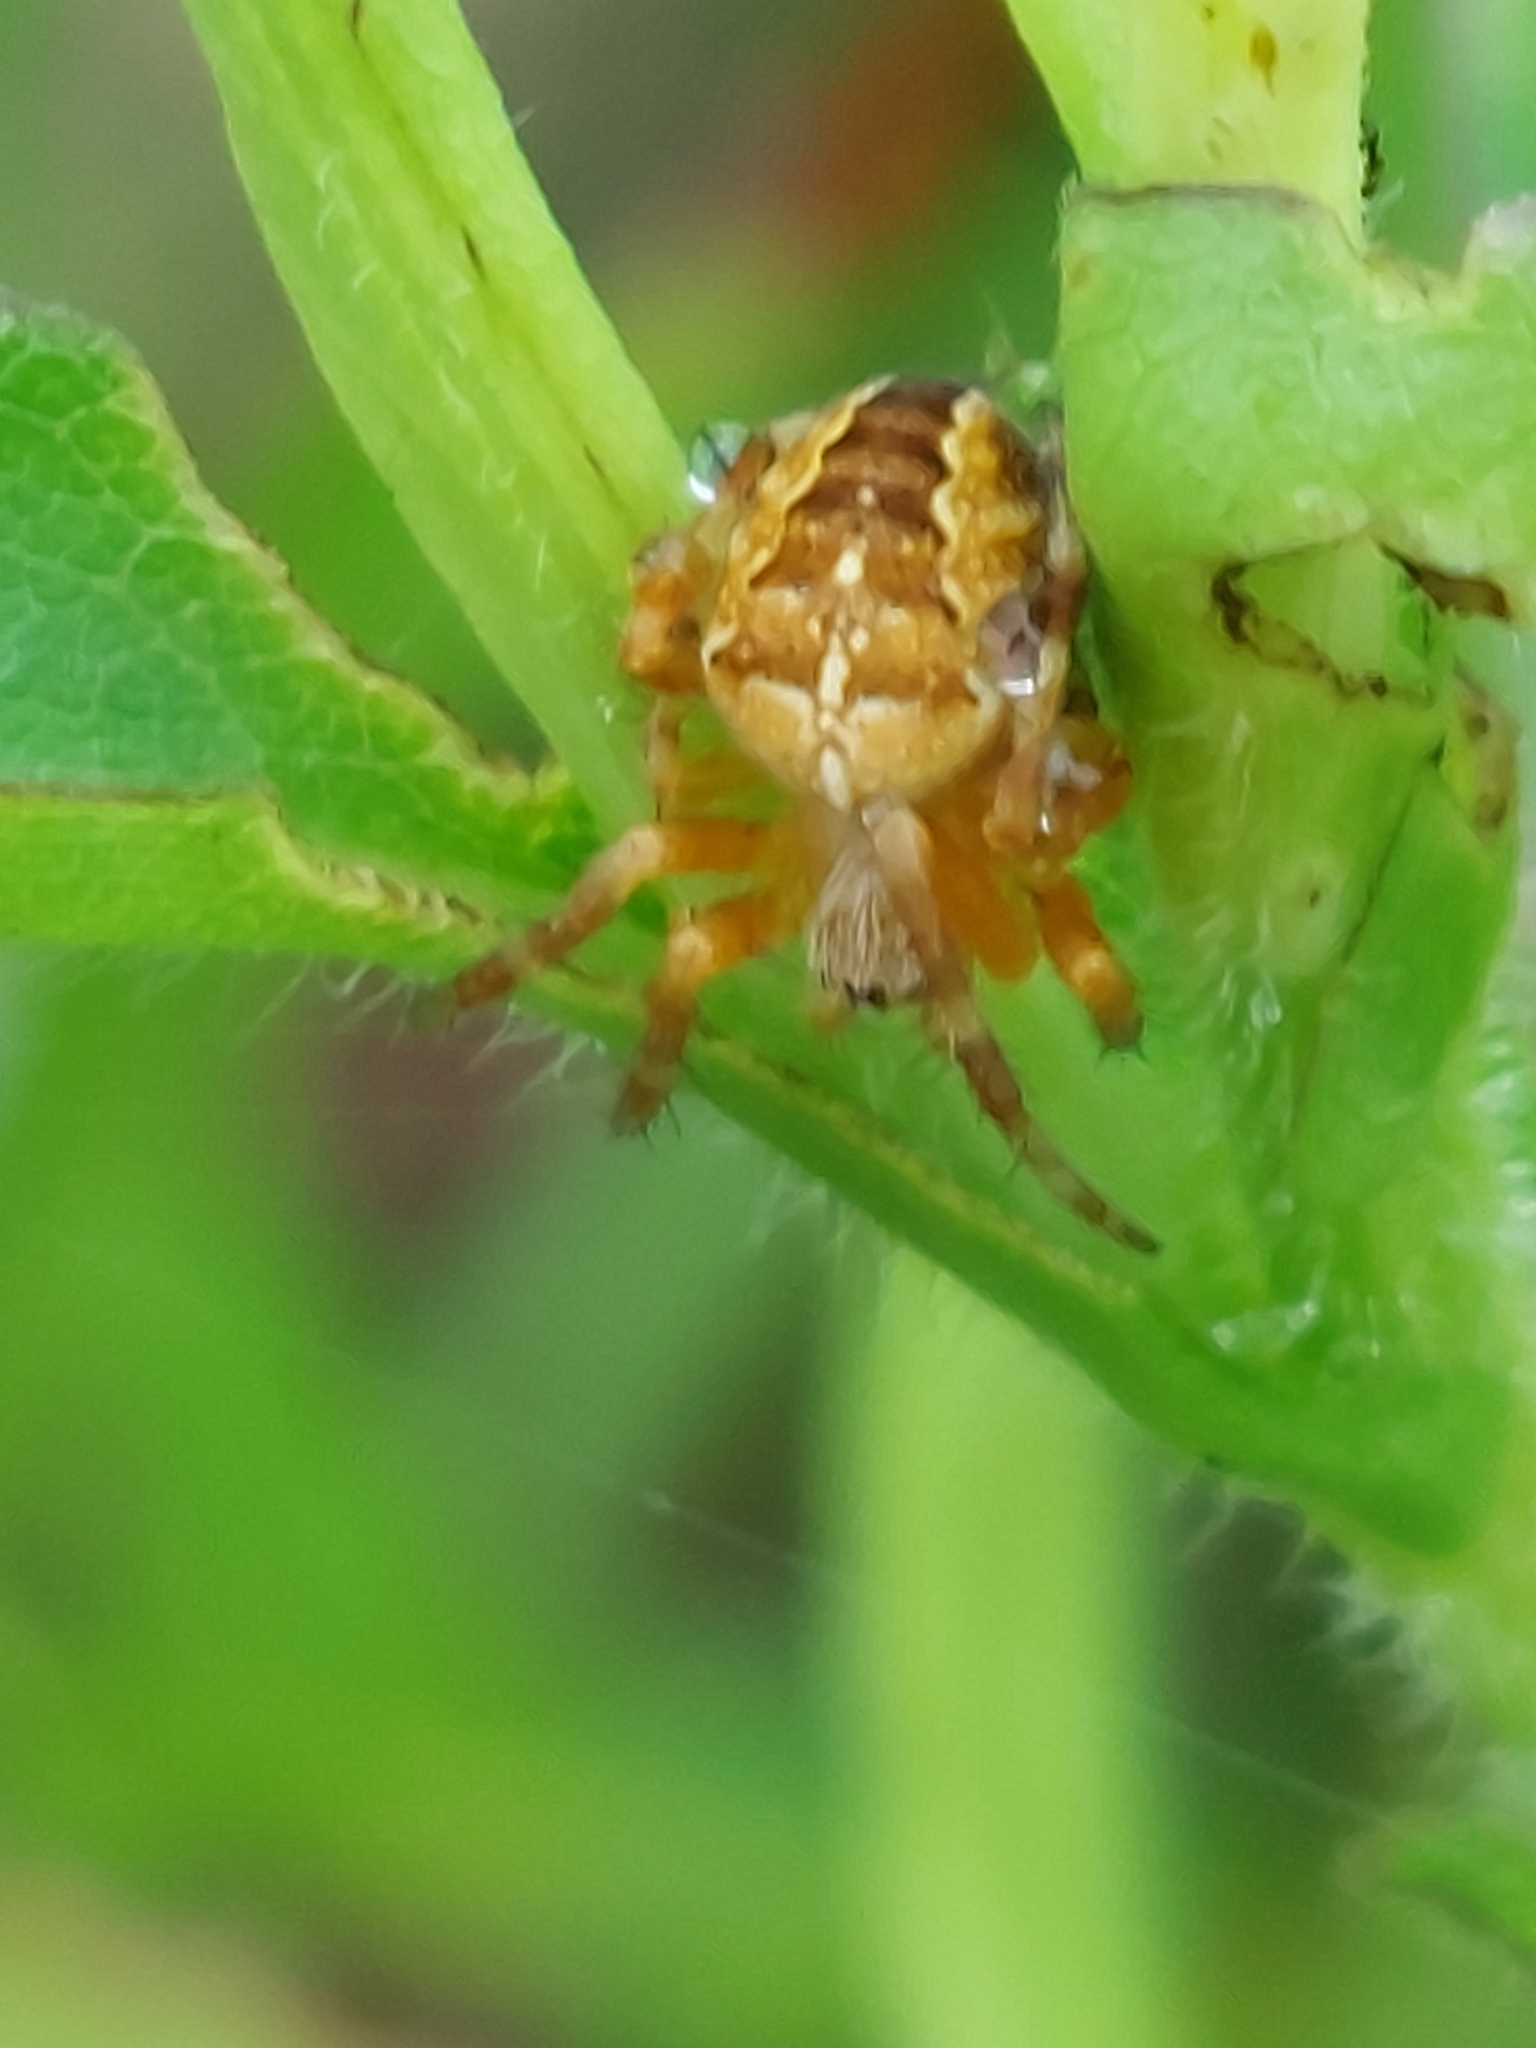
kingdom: Animalia
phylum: Arthropoda
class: Arachnida
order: Araneae
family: Araneidae
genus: Araneus
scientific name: Araneus diadematus
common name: Cross orbweaver
